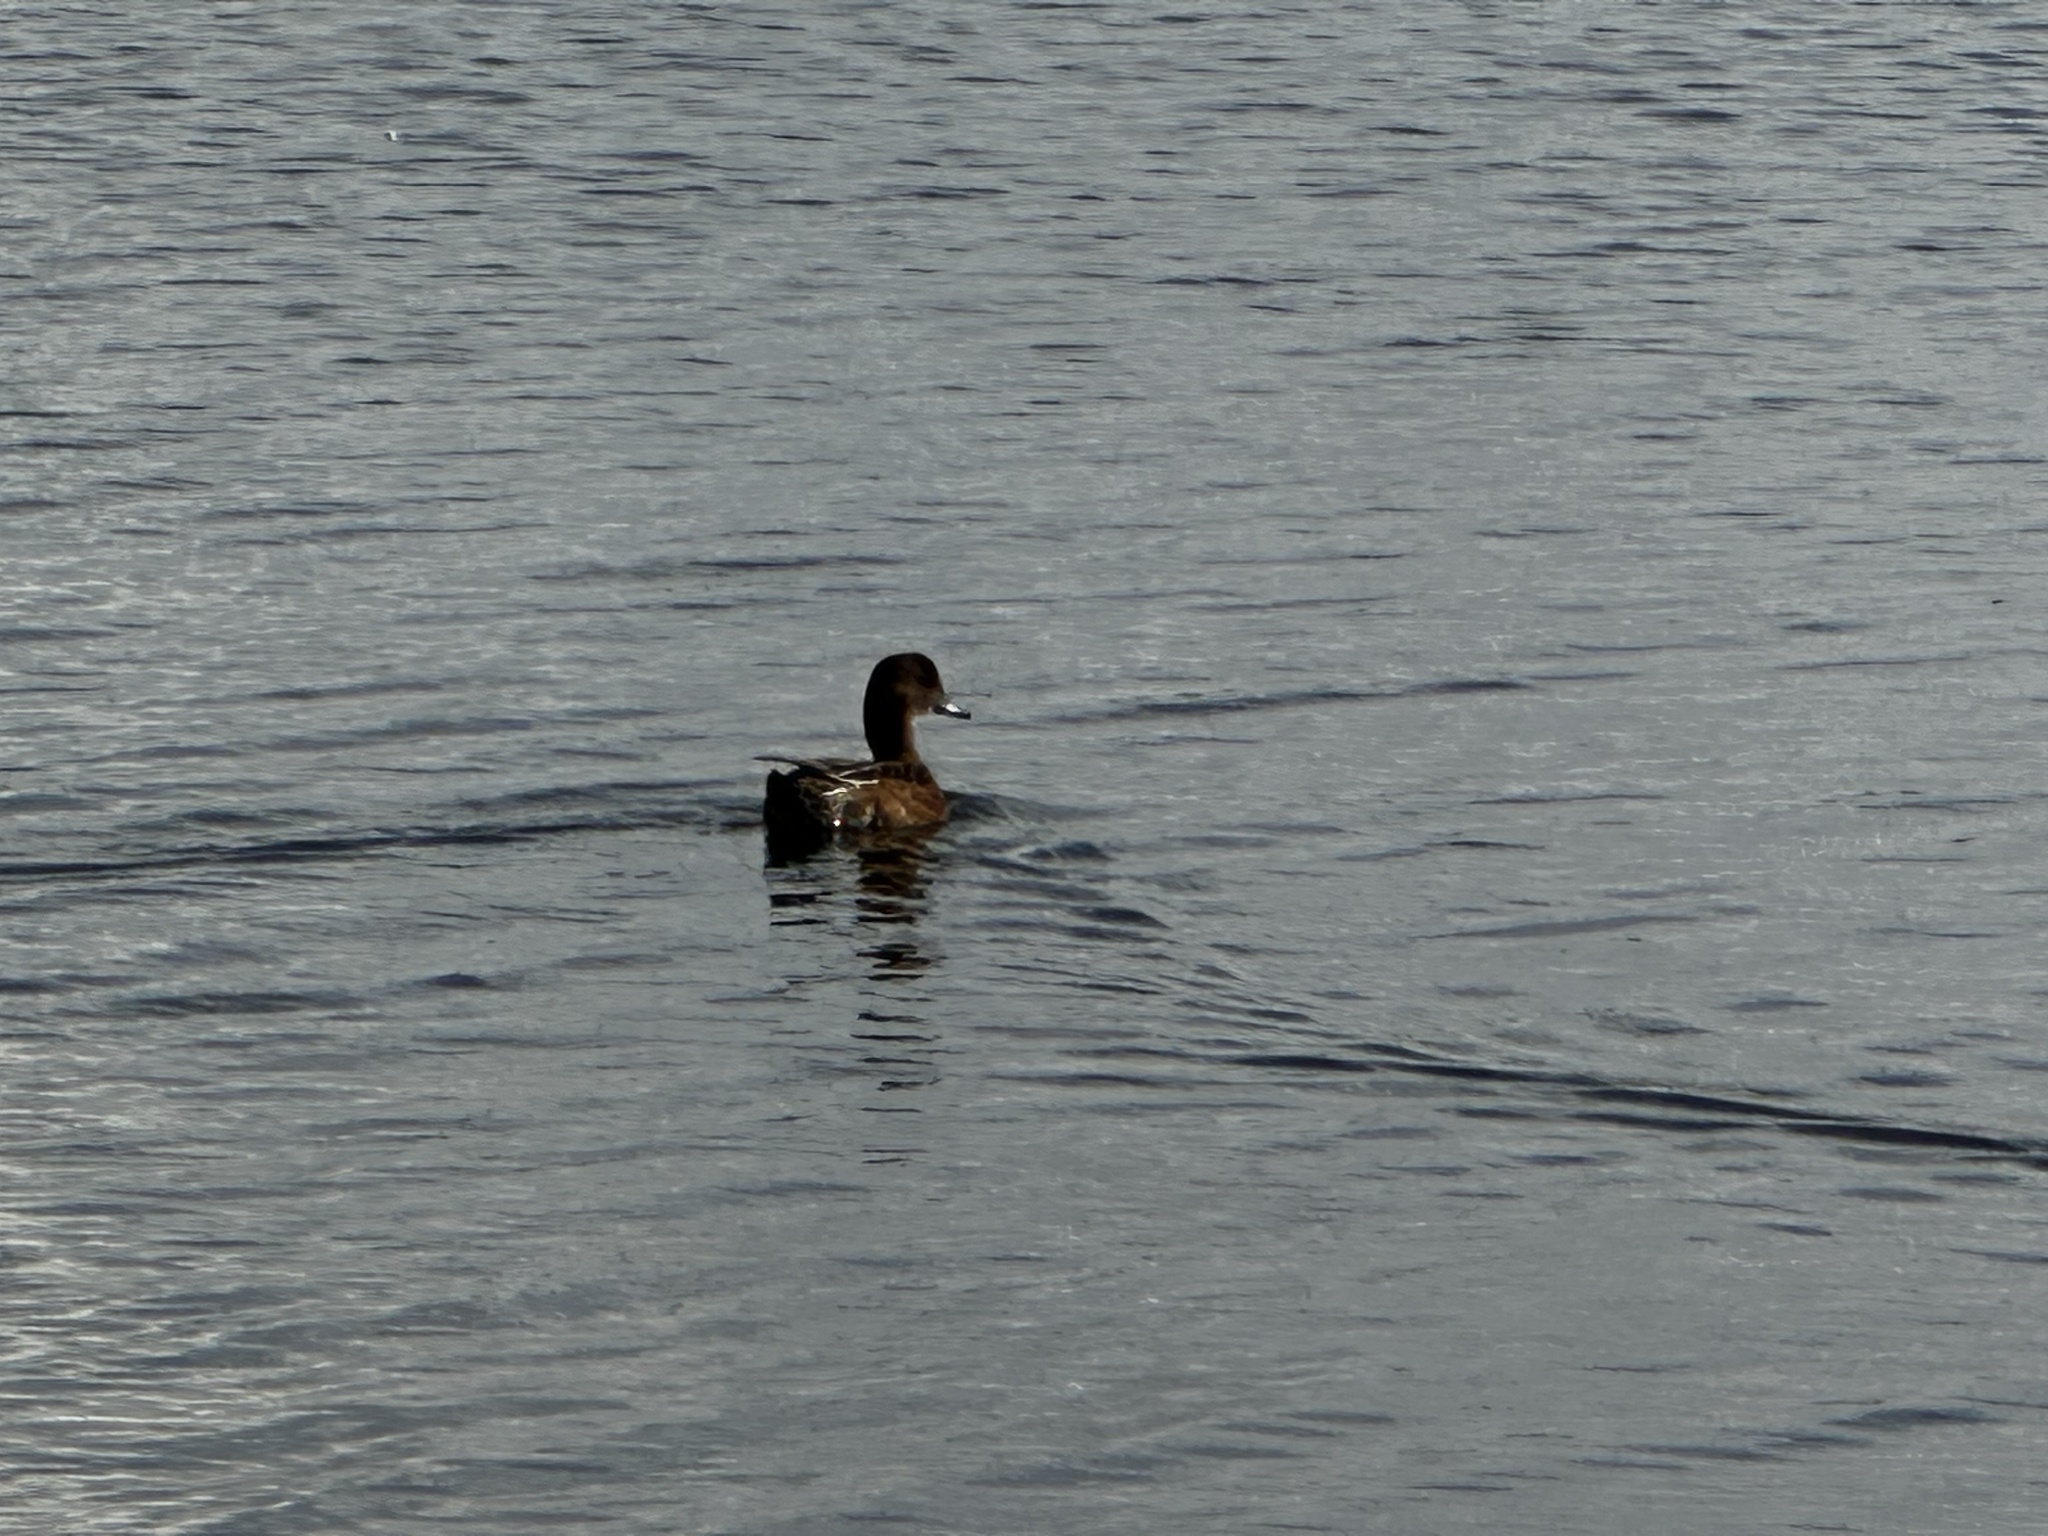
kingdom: Animalia
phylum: Chordata
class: Aves
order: Anseriformes
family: Anatidae
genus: Mareca
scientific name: Mareca penelope
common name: Eurasian wigeon
